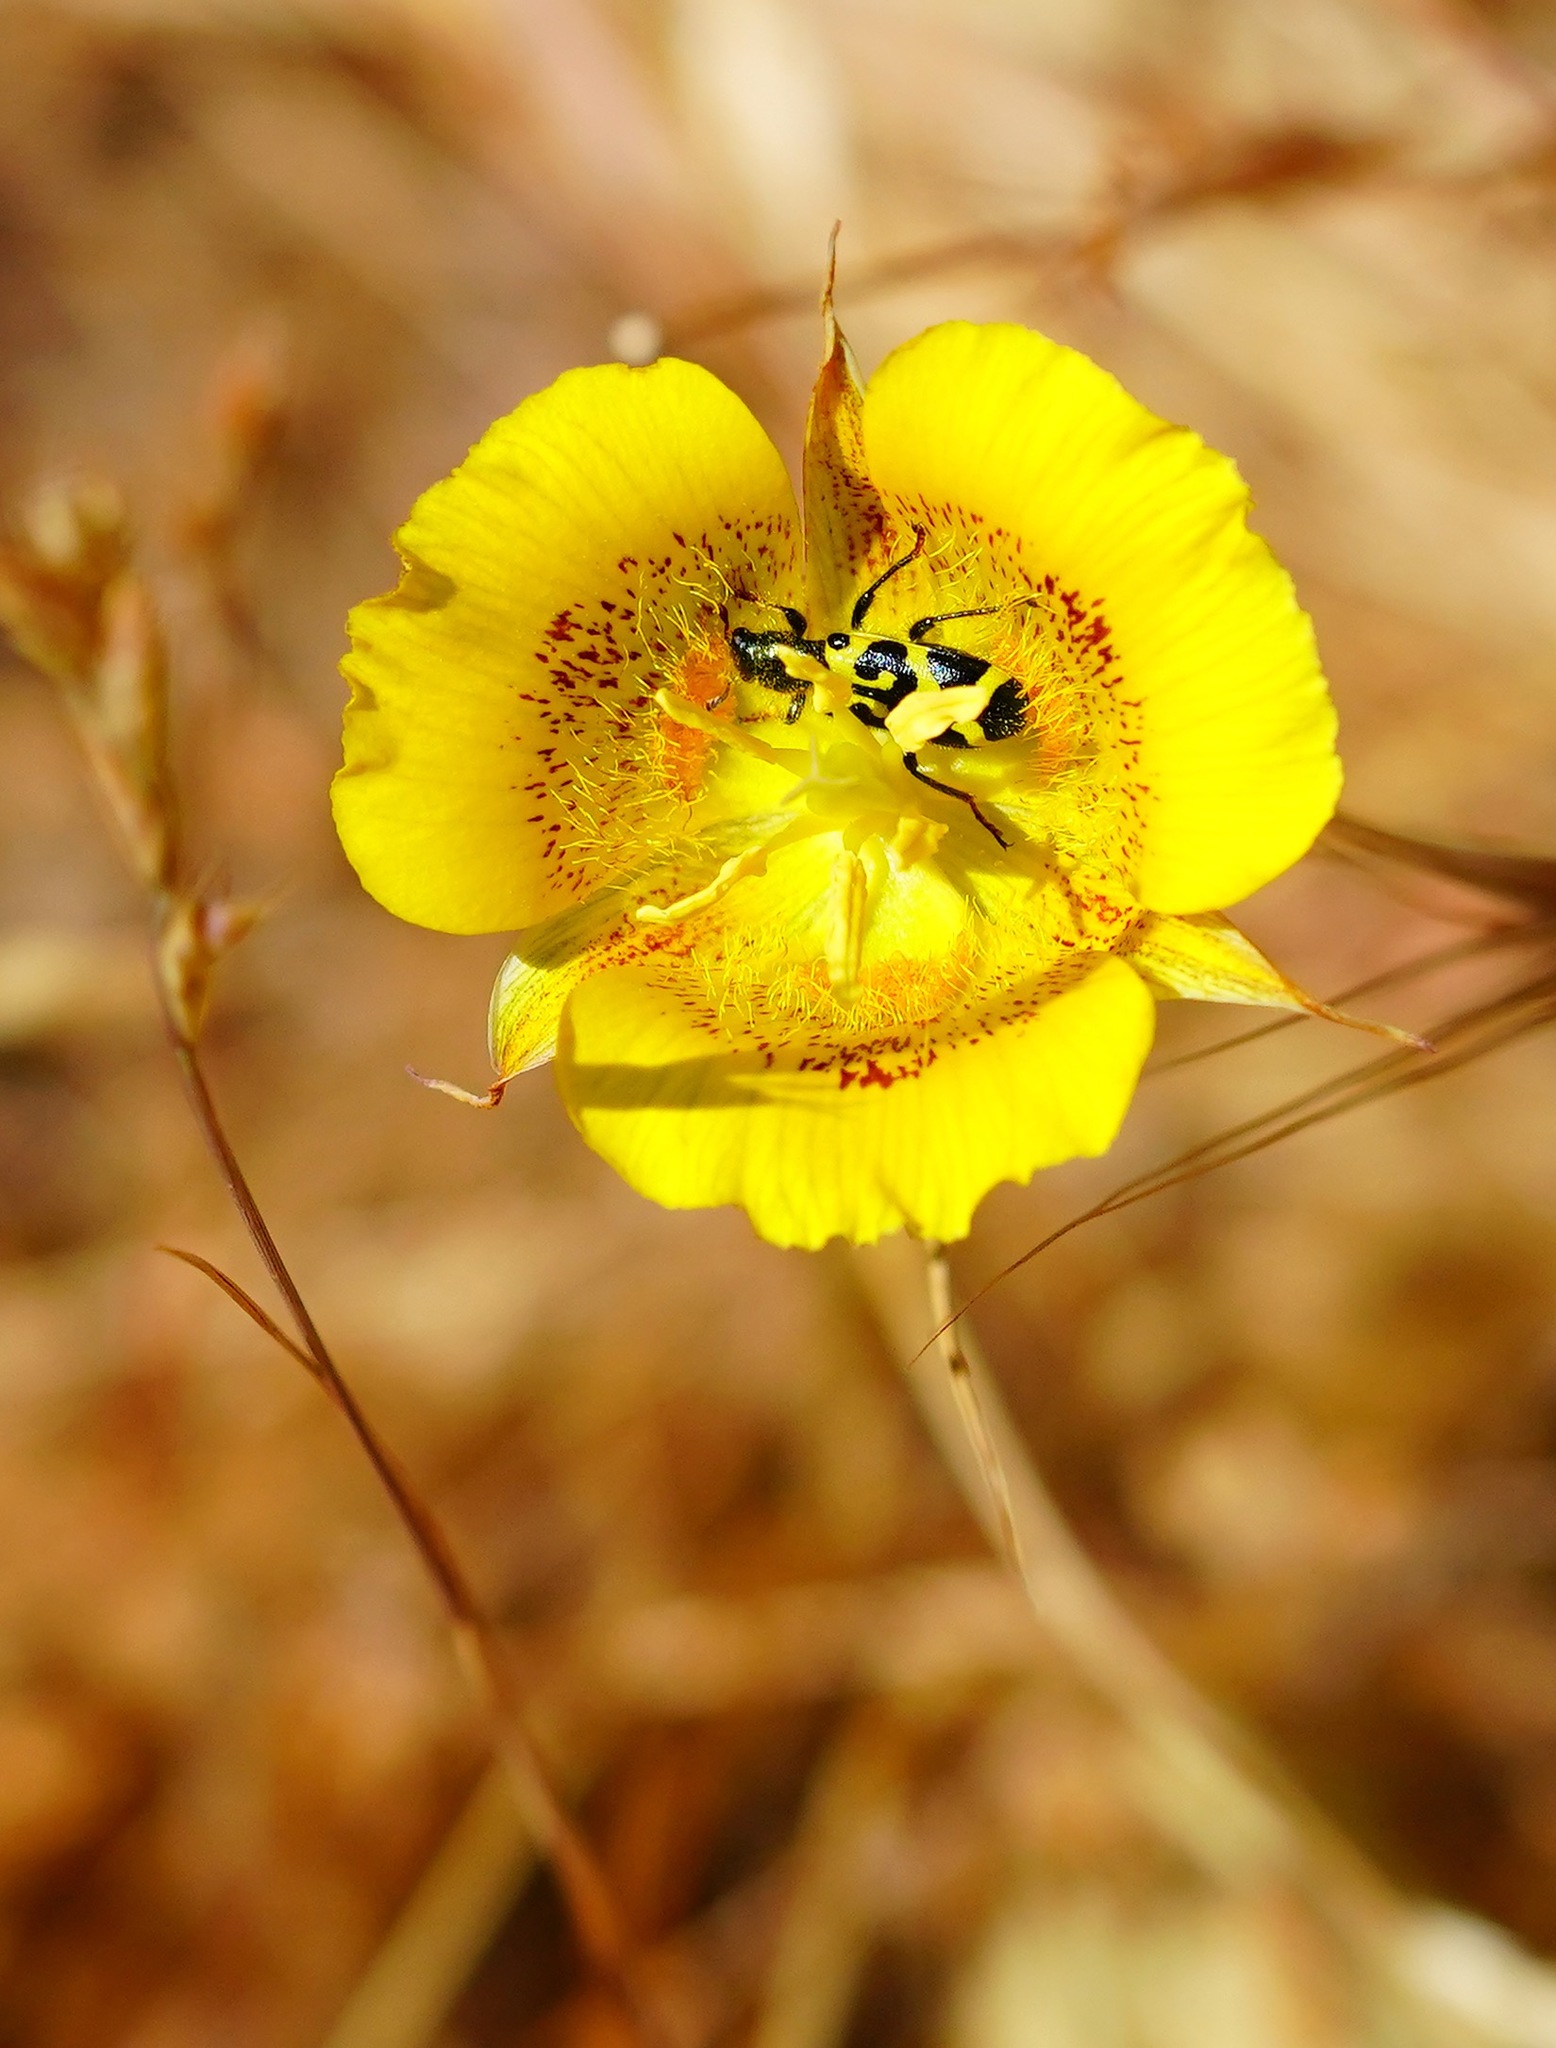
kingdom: Animalia
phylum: Arthropoda
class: Insecta
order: Coleoptera
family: Cleridae
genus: Trichodes
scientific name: Trichodes ornatus
